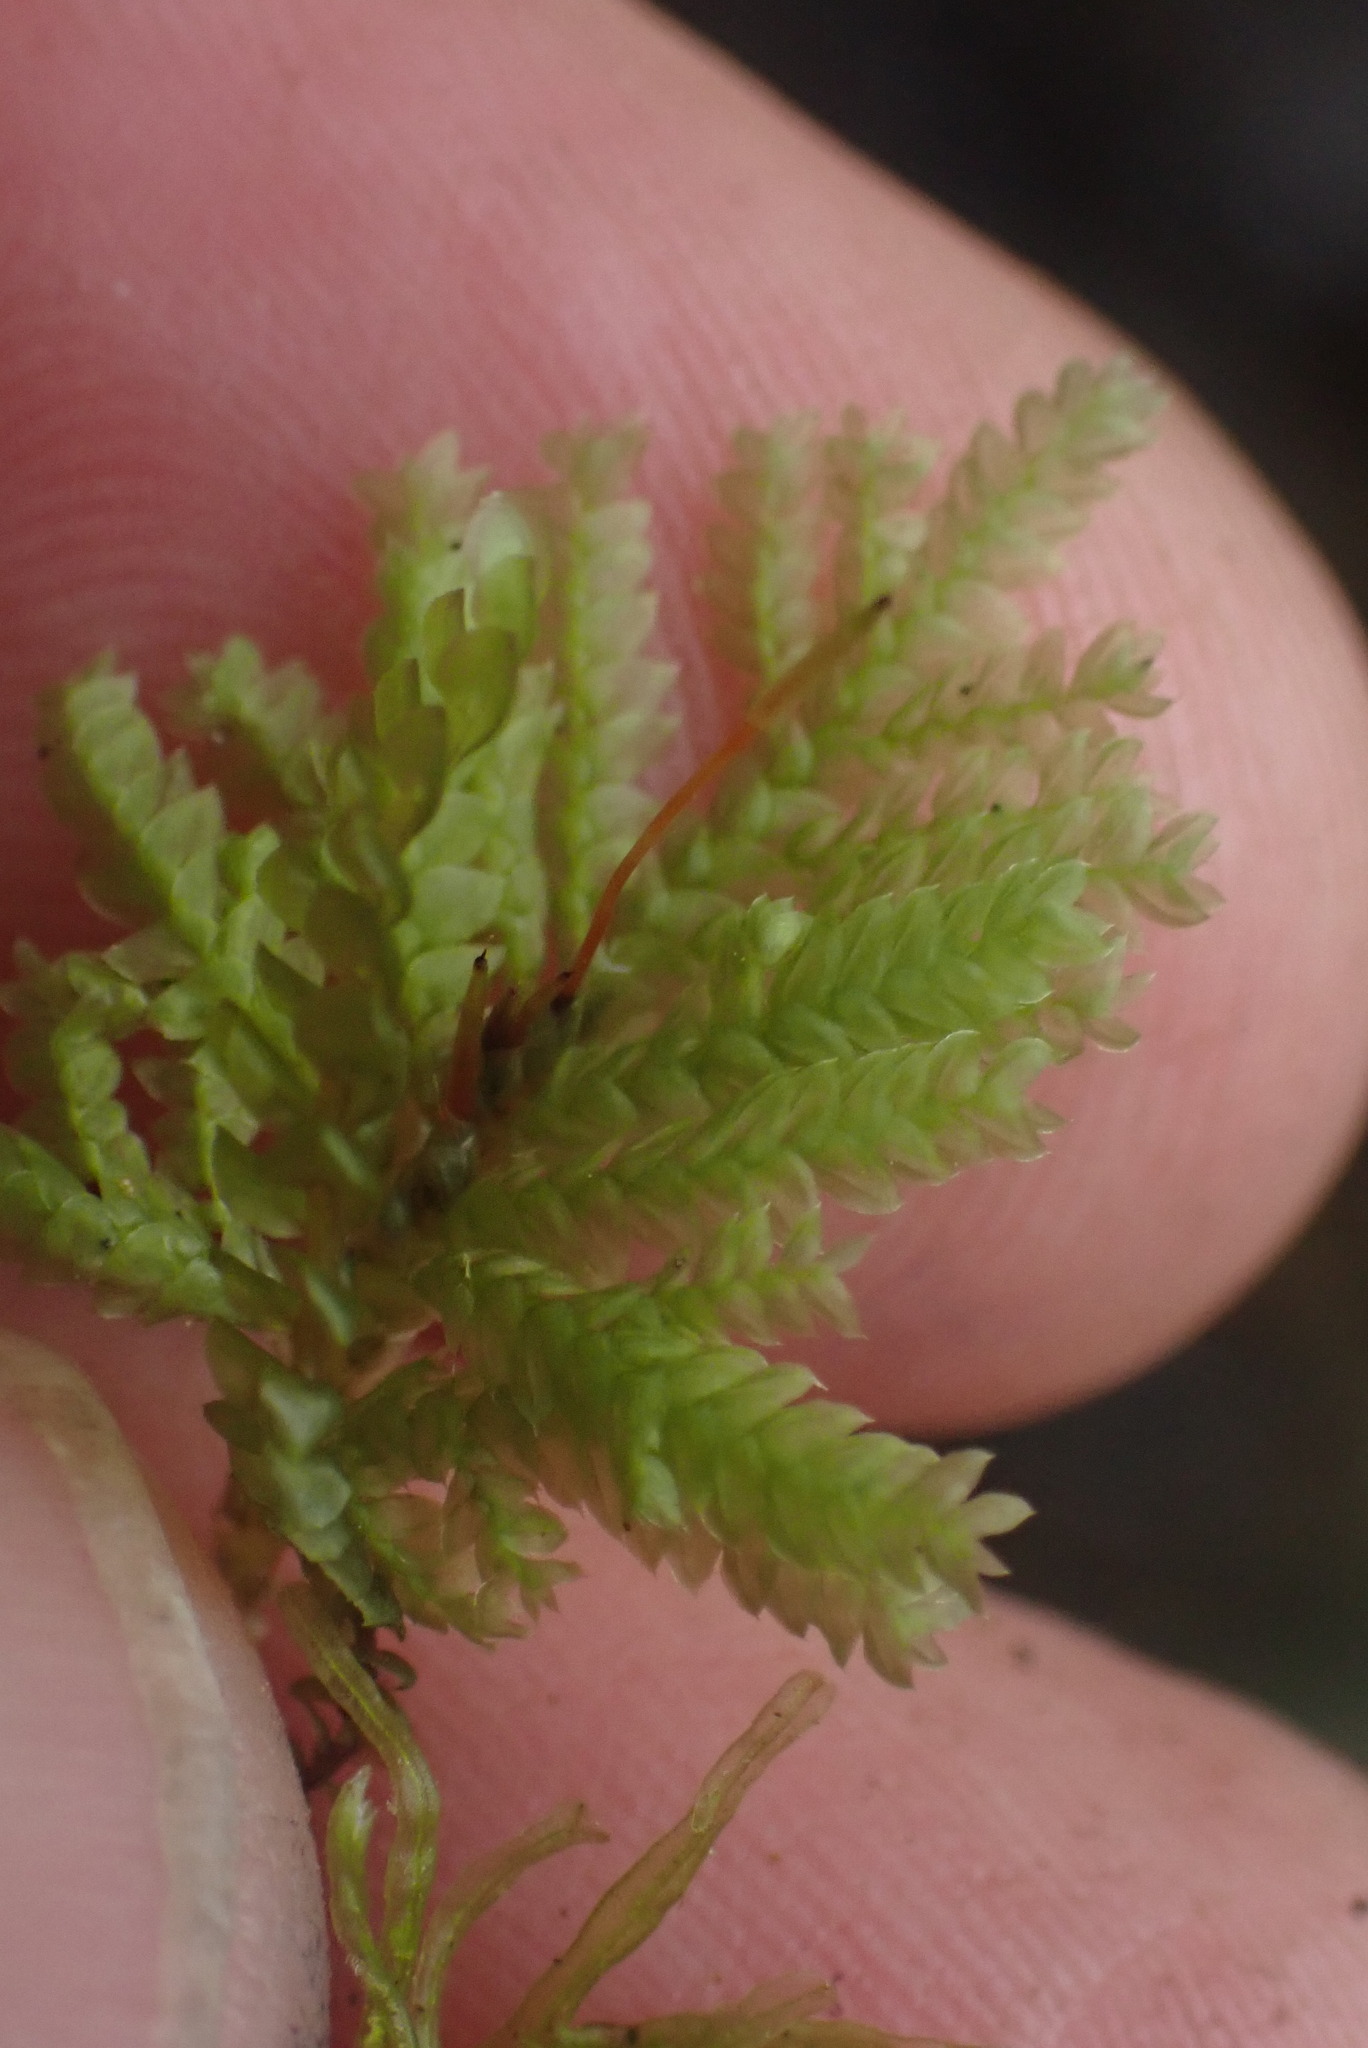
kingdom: Plantae
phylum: Bryophyta
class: Bryopsida
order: Hypopterygiales
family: Hypopterygiaceae
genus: Hypopterygium
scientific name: Hypopterygium flavolimbatum
